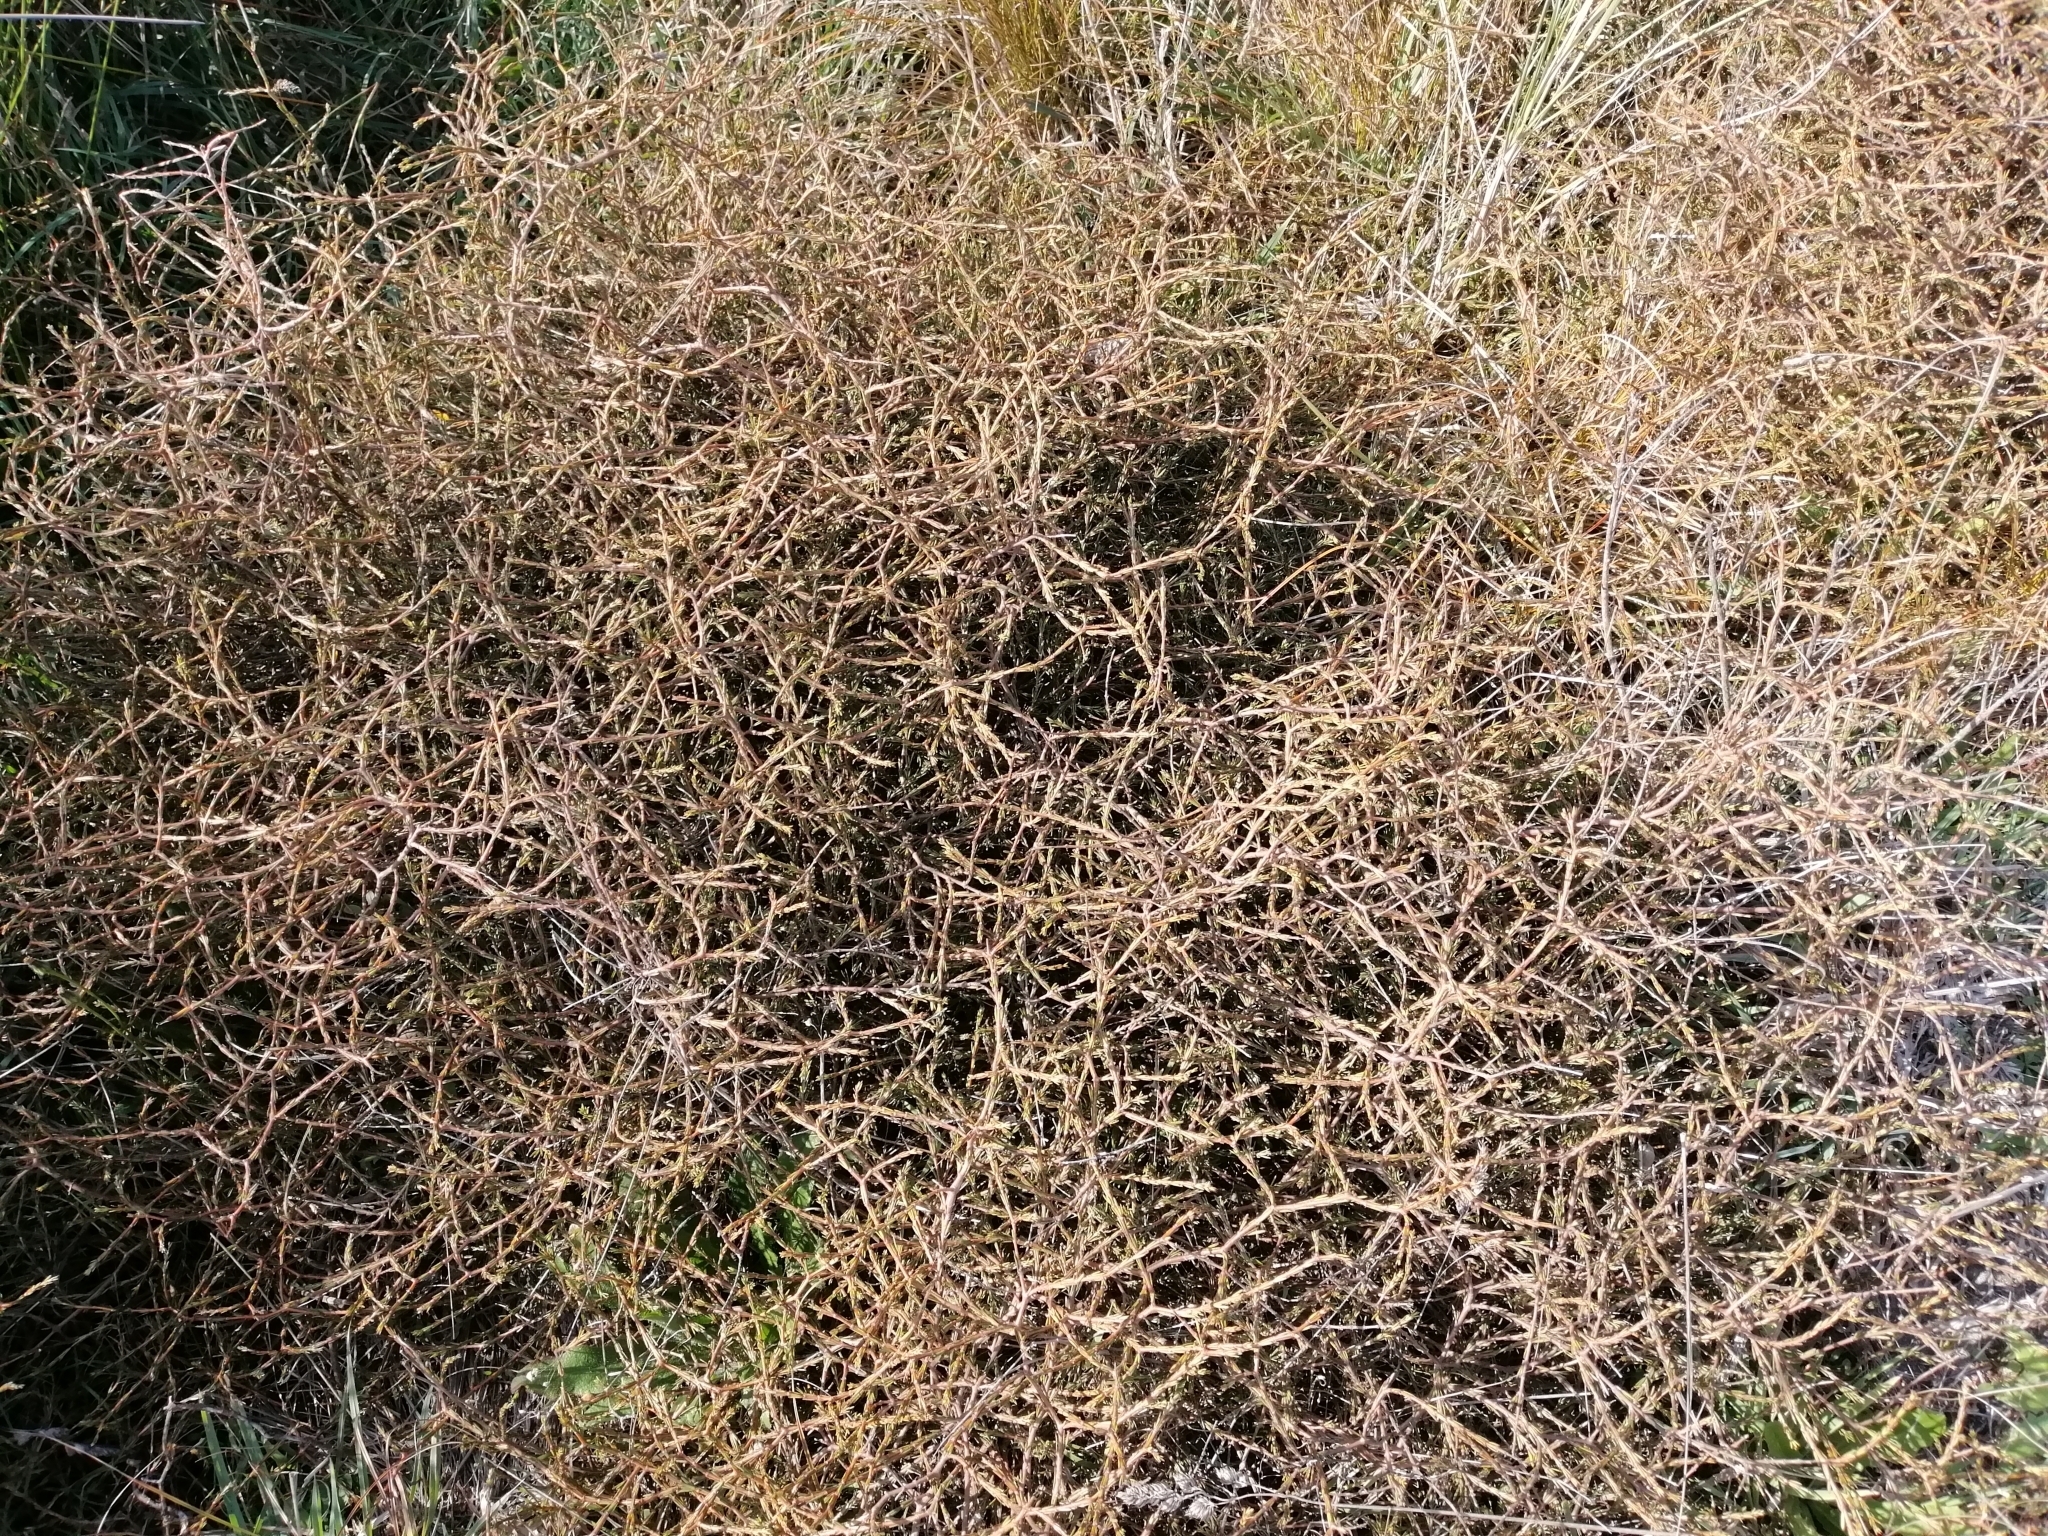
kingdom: Plantae
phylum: Tracheophyta
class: Magnoliopsida
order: Gentianales
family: Rubiaceae
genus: Coprosma
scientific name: Coprosma acerosa
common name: Sand coprosma
